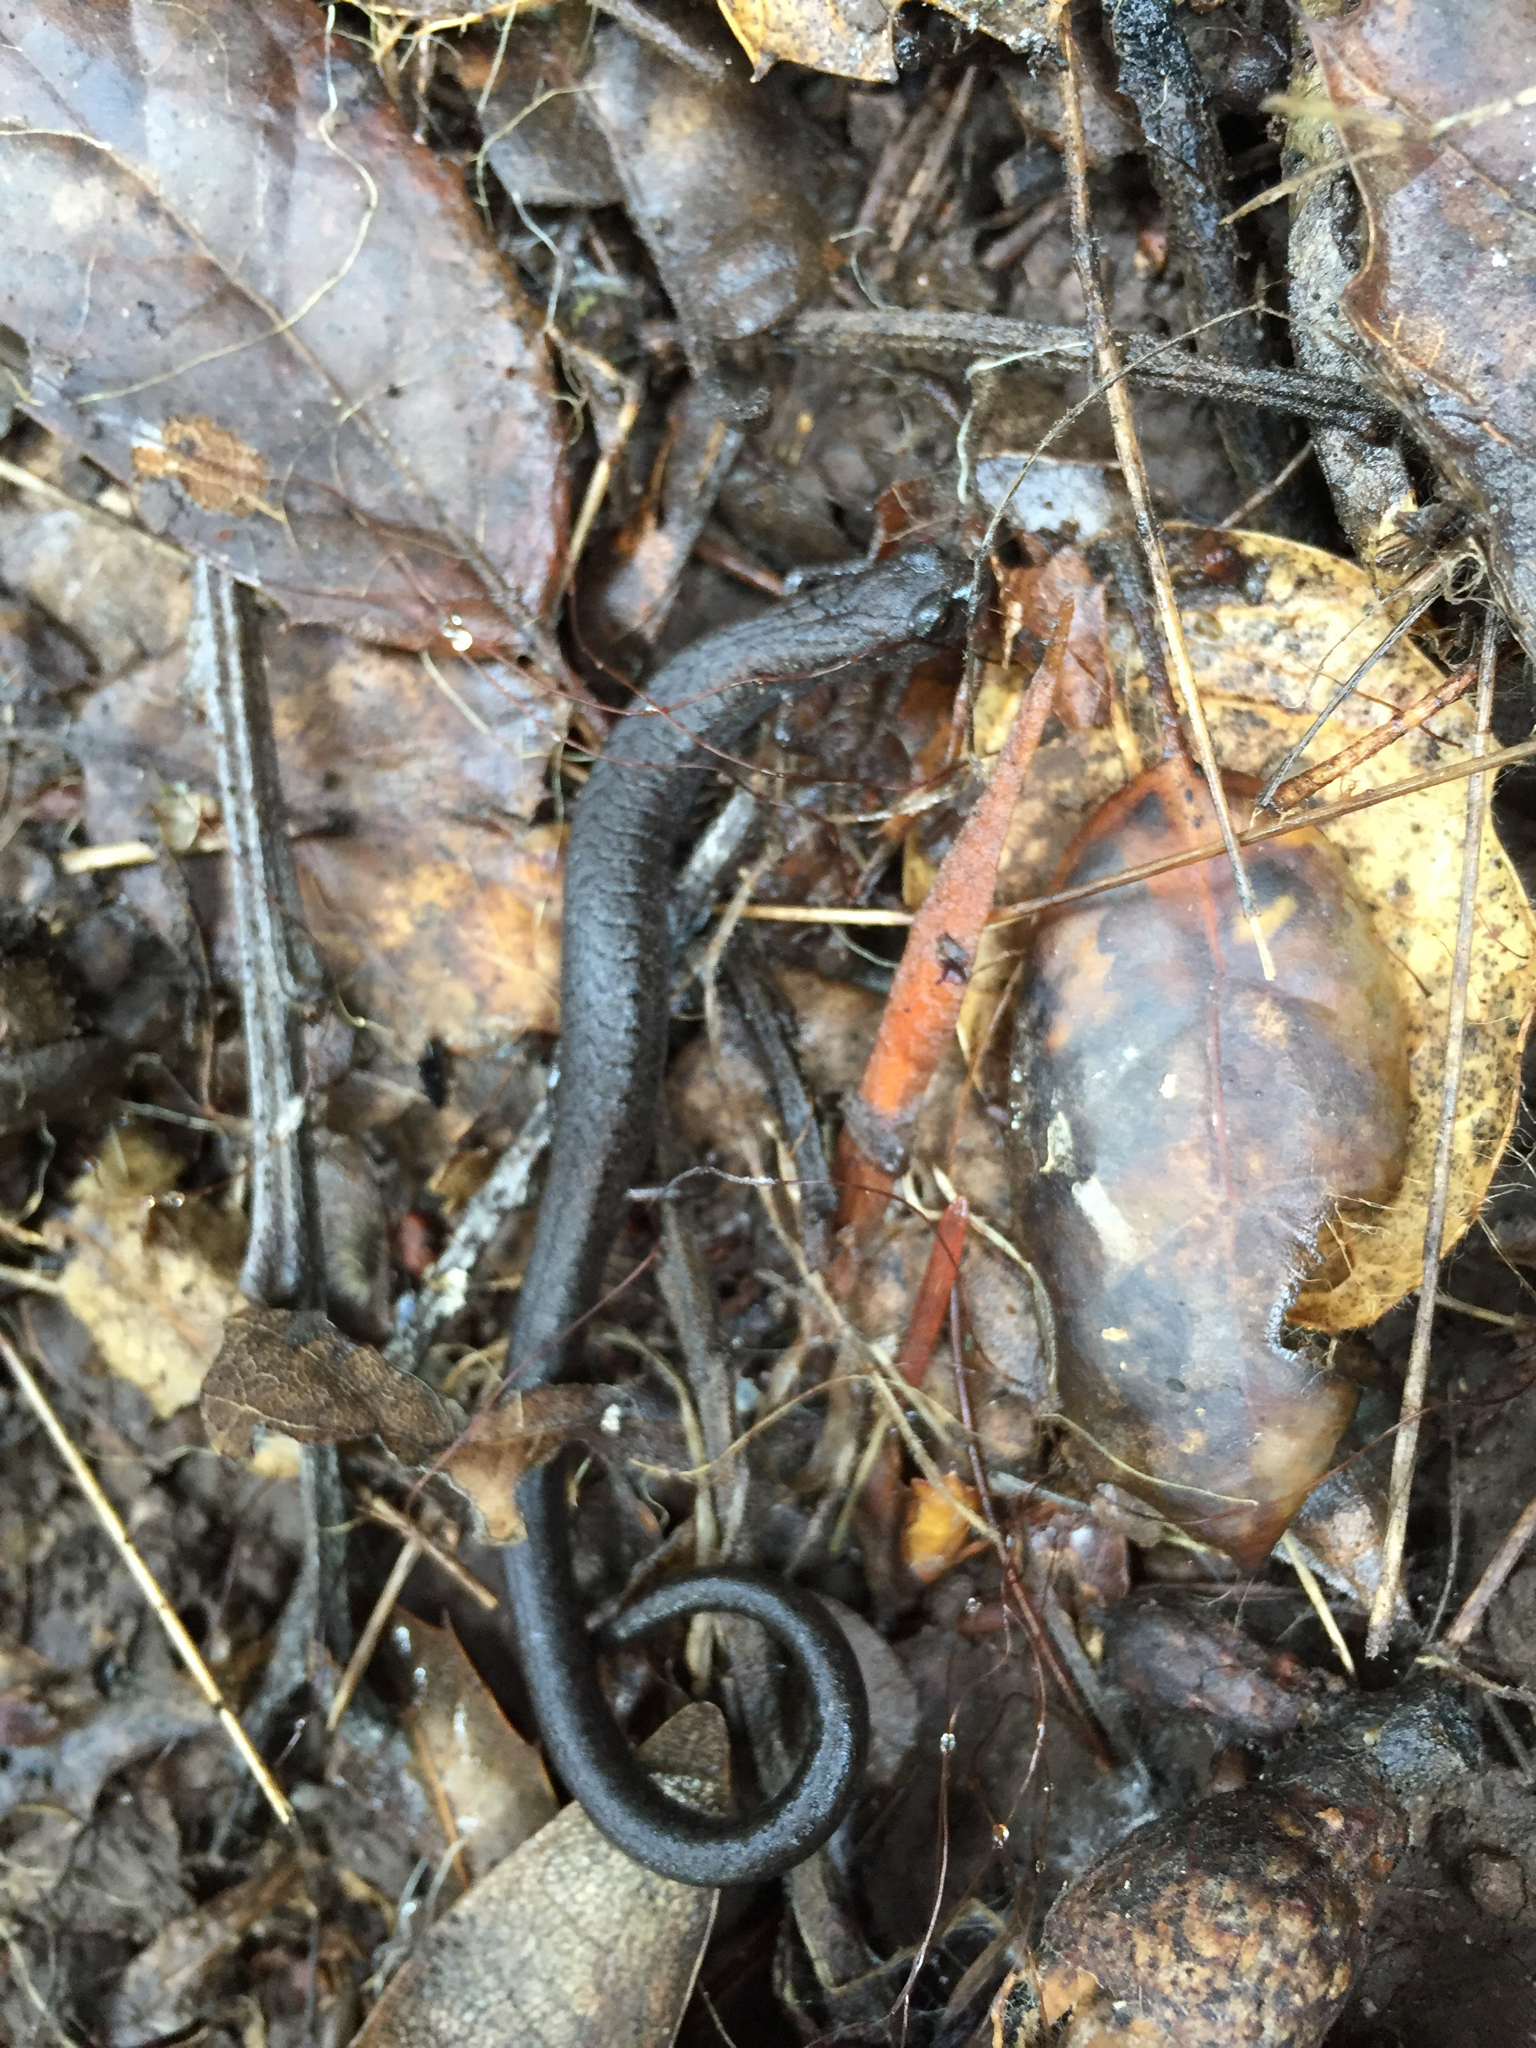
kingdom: Animalia
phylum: Chordata
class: Amphibia
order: Caudata
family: Plethodontidae
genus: Batrachoseps
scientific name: Batrachoseps attenuatus
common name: California slender salamander
